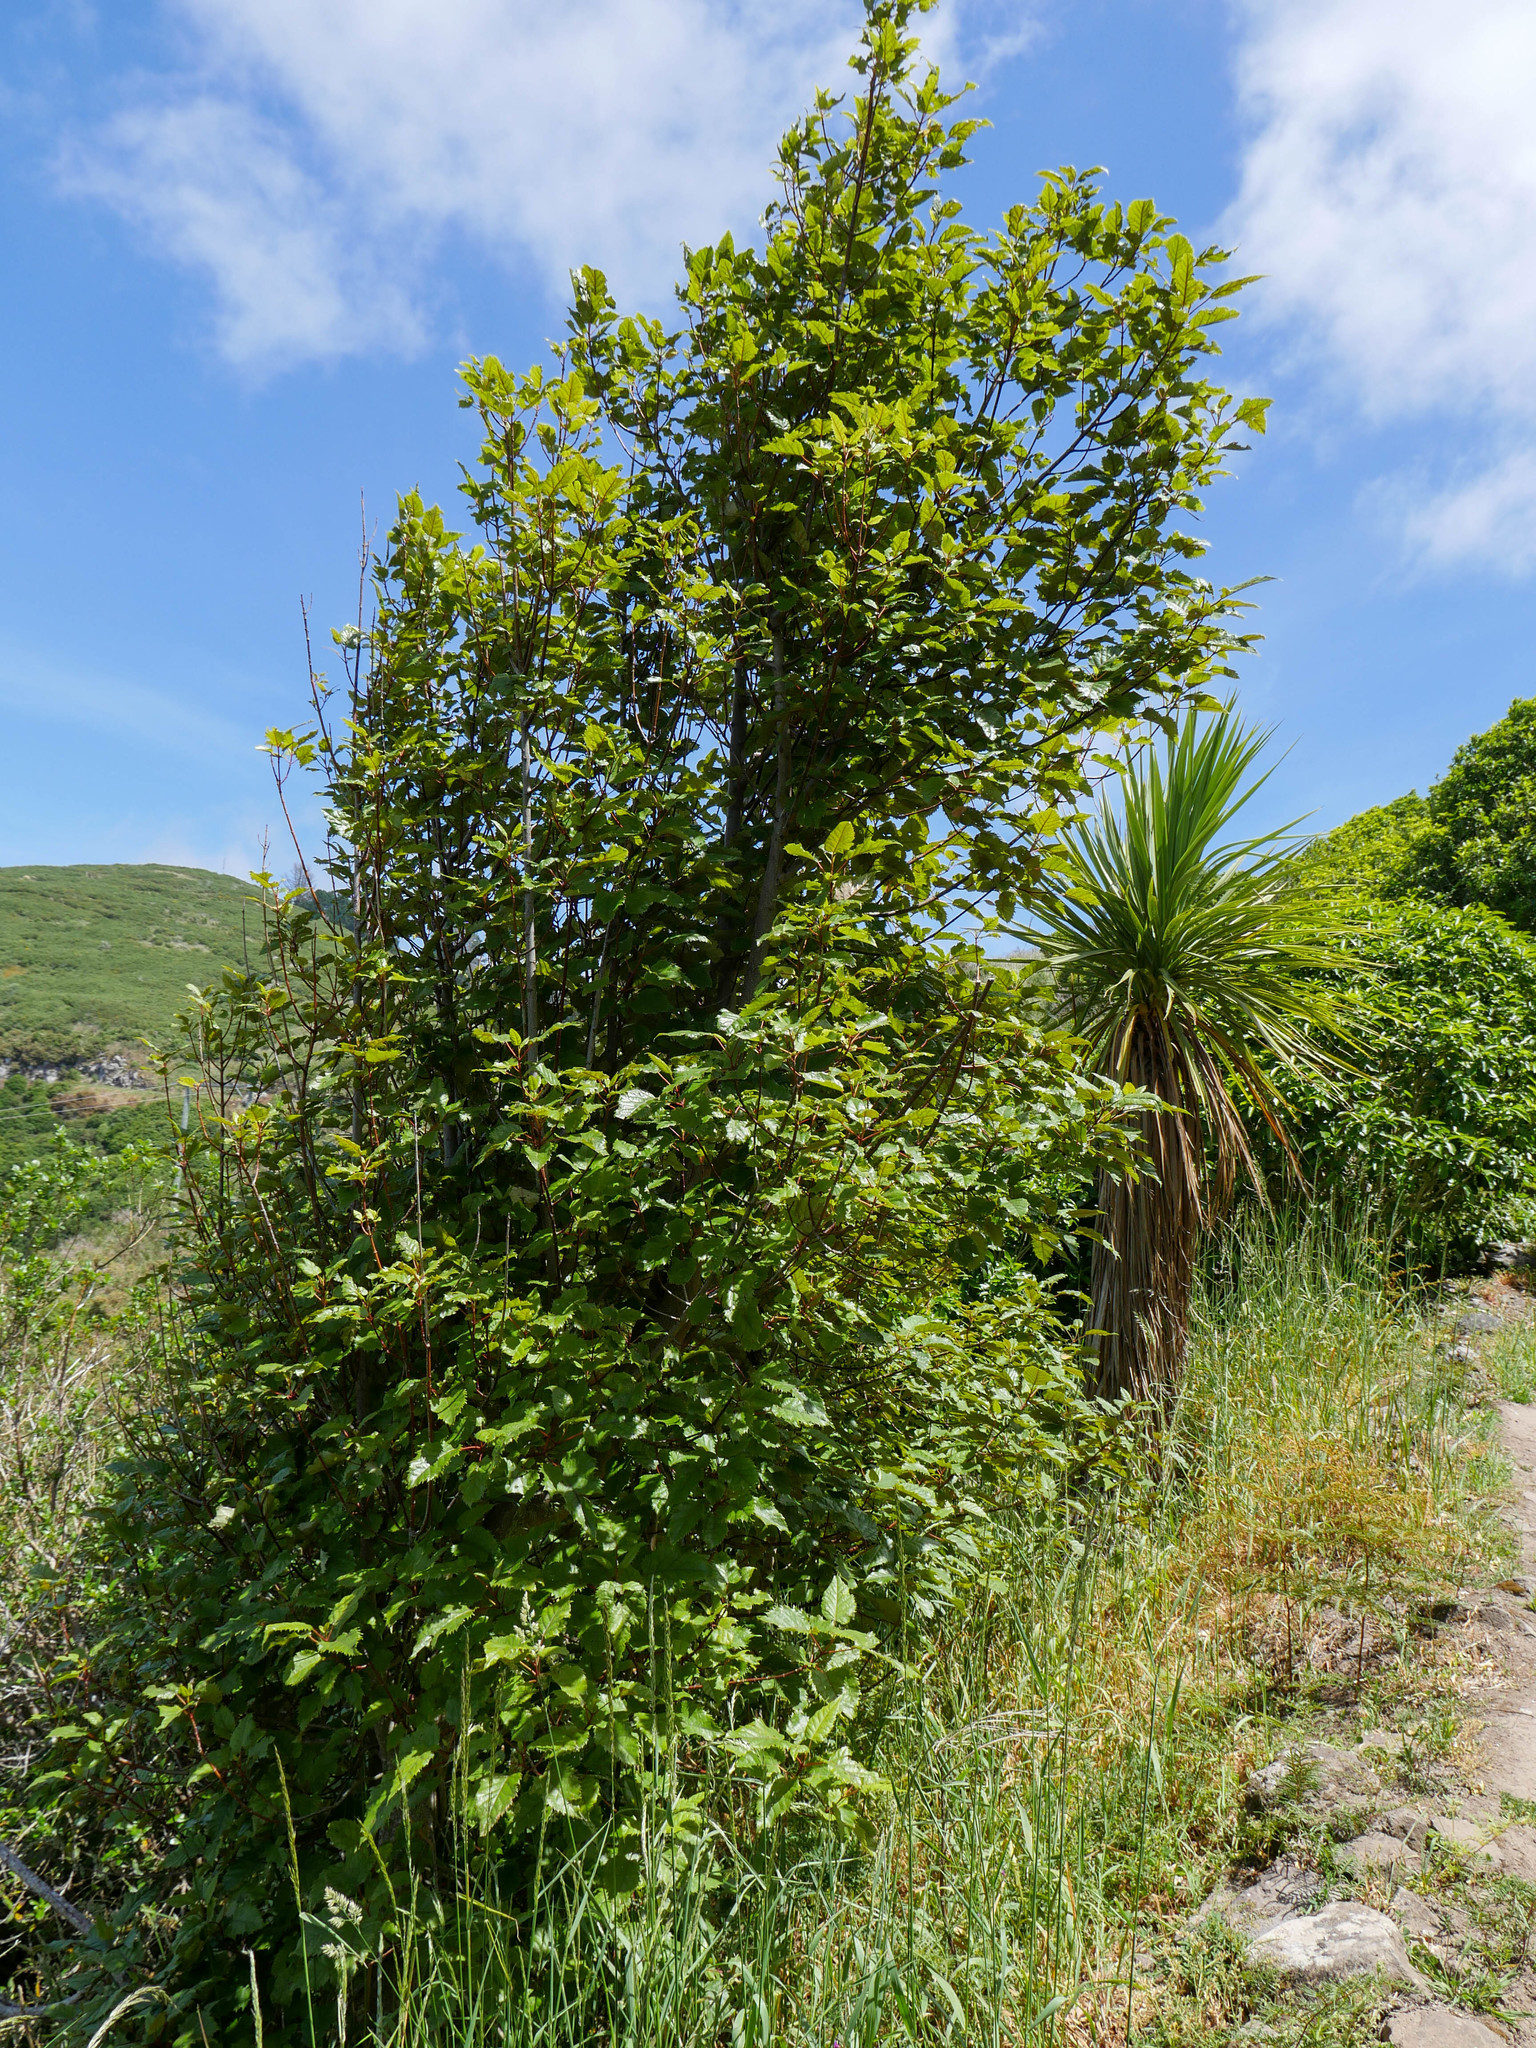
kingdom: Plantae
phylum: Tracheophyta
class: Magnoliopsida
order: Oxalidales
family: Elaeocarpaceae
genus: Aristotelia
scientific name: Aristotelia serrata
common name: New zealand wineberry
